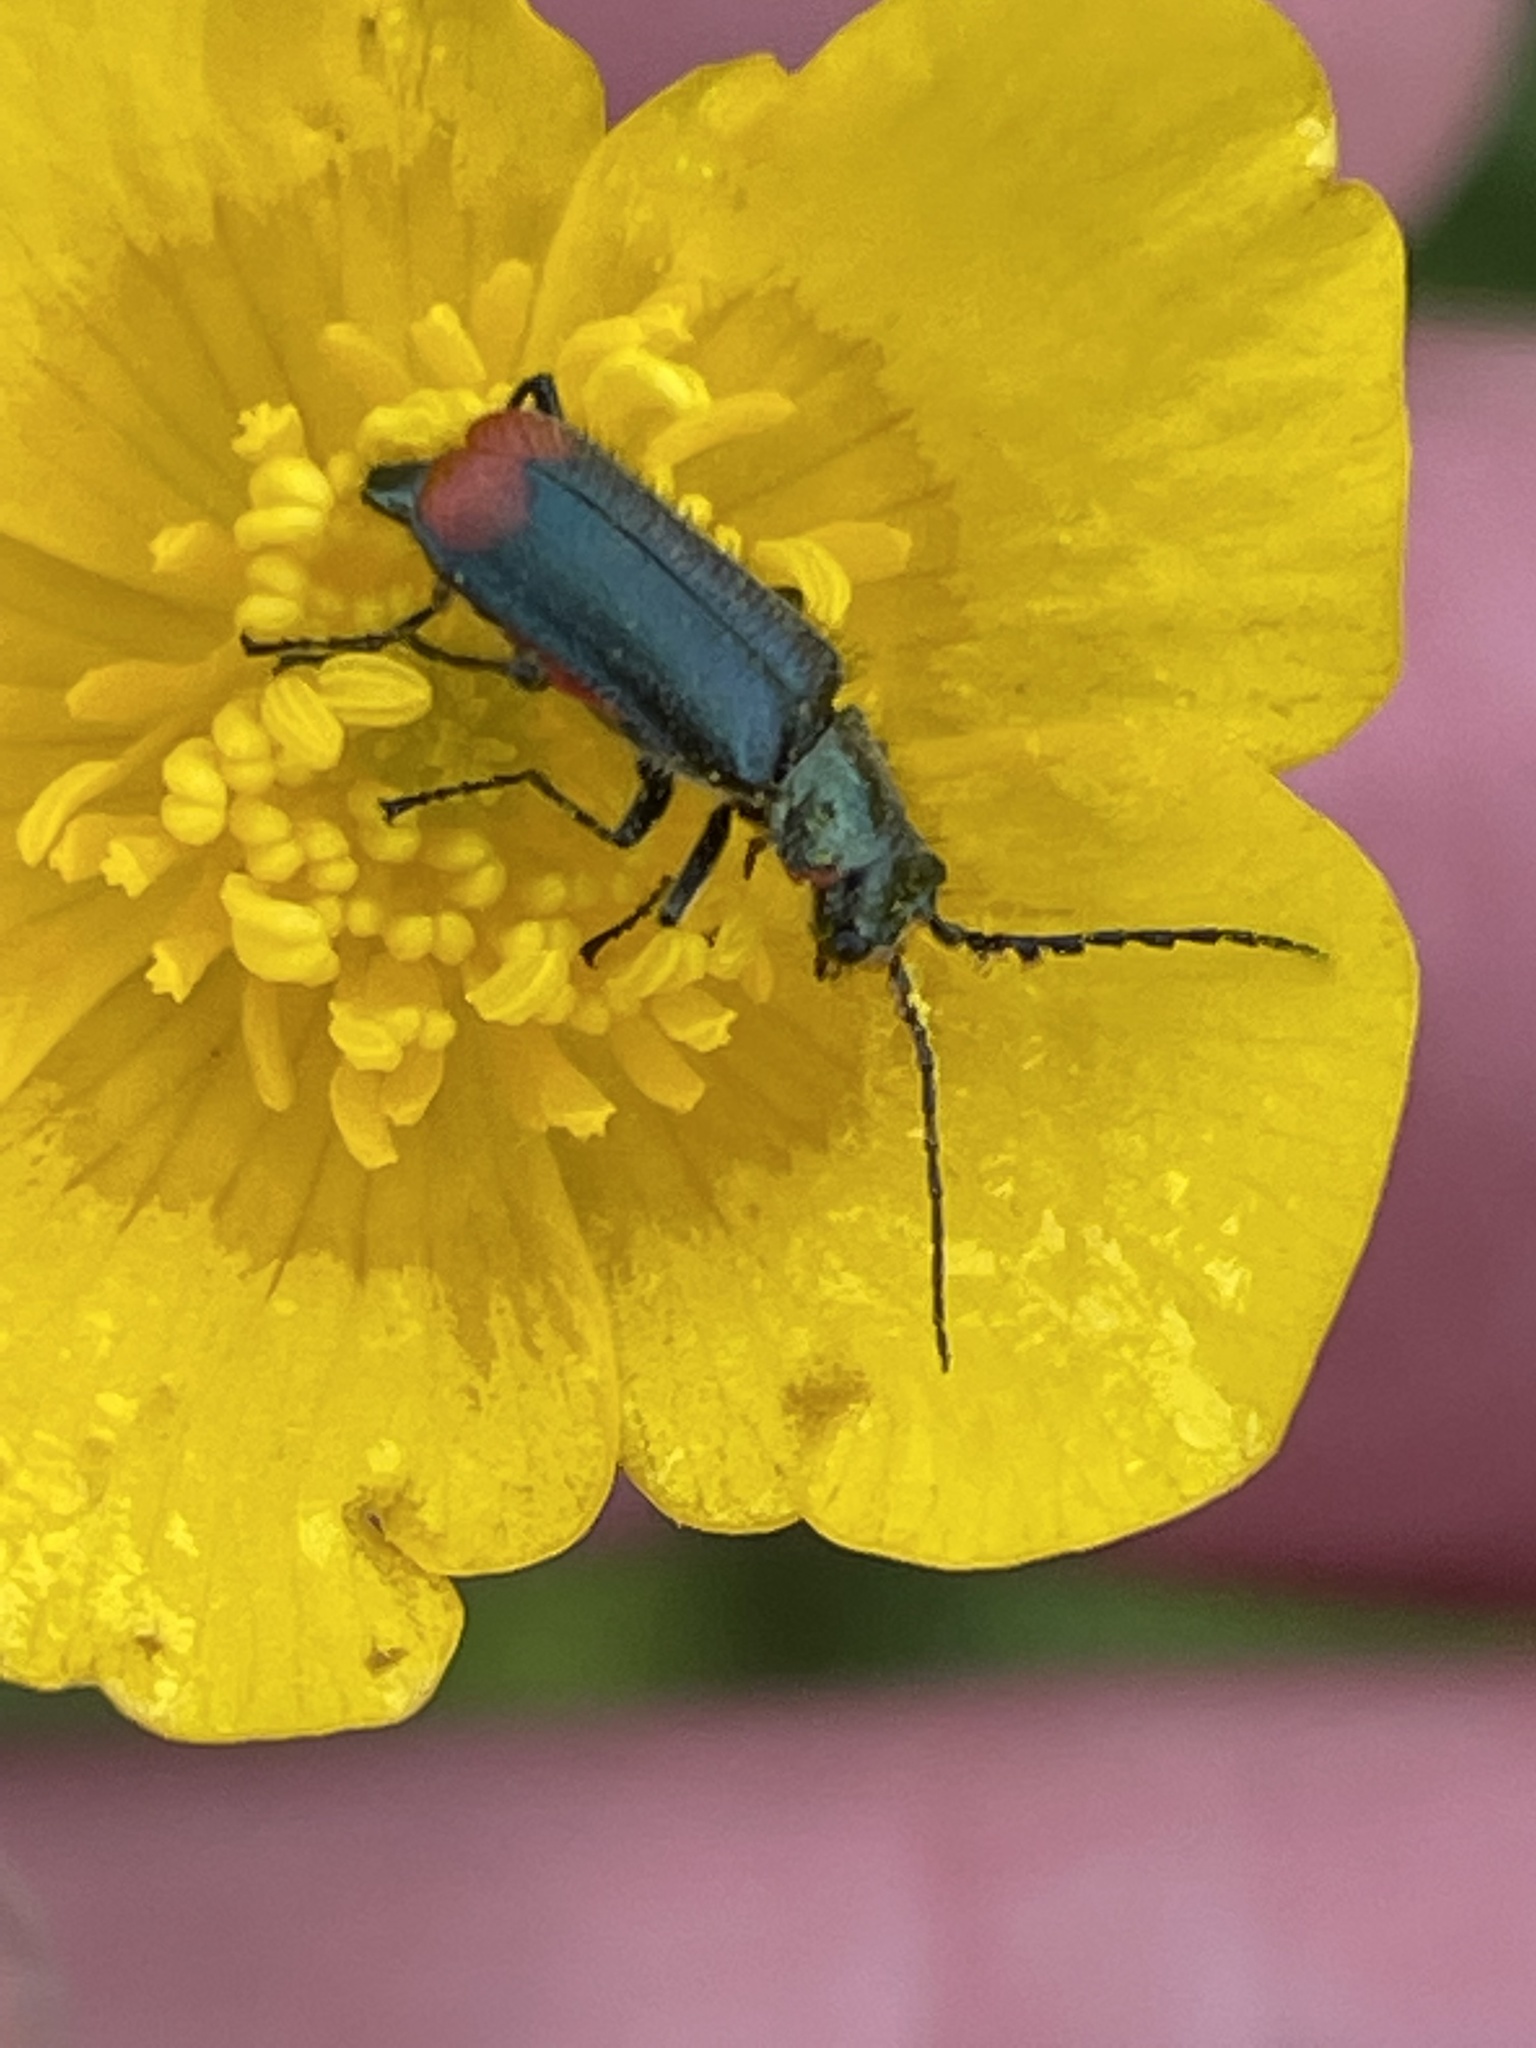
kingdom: Animalia
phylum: Arthropoda
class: Insecta
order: Coleoptera
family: Melyridae
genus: Malachius
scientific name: Malachius bipustulatus
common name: Malachite beetle
